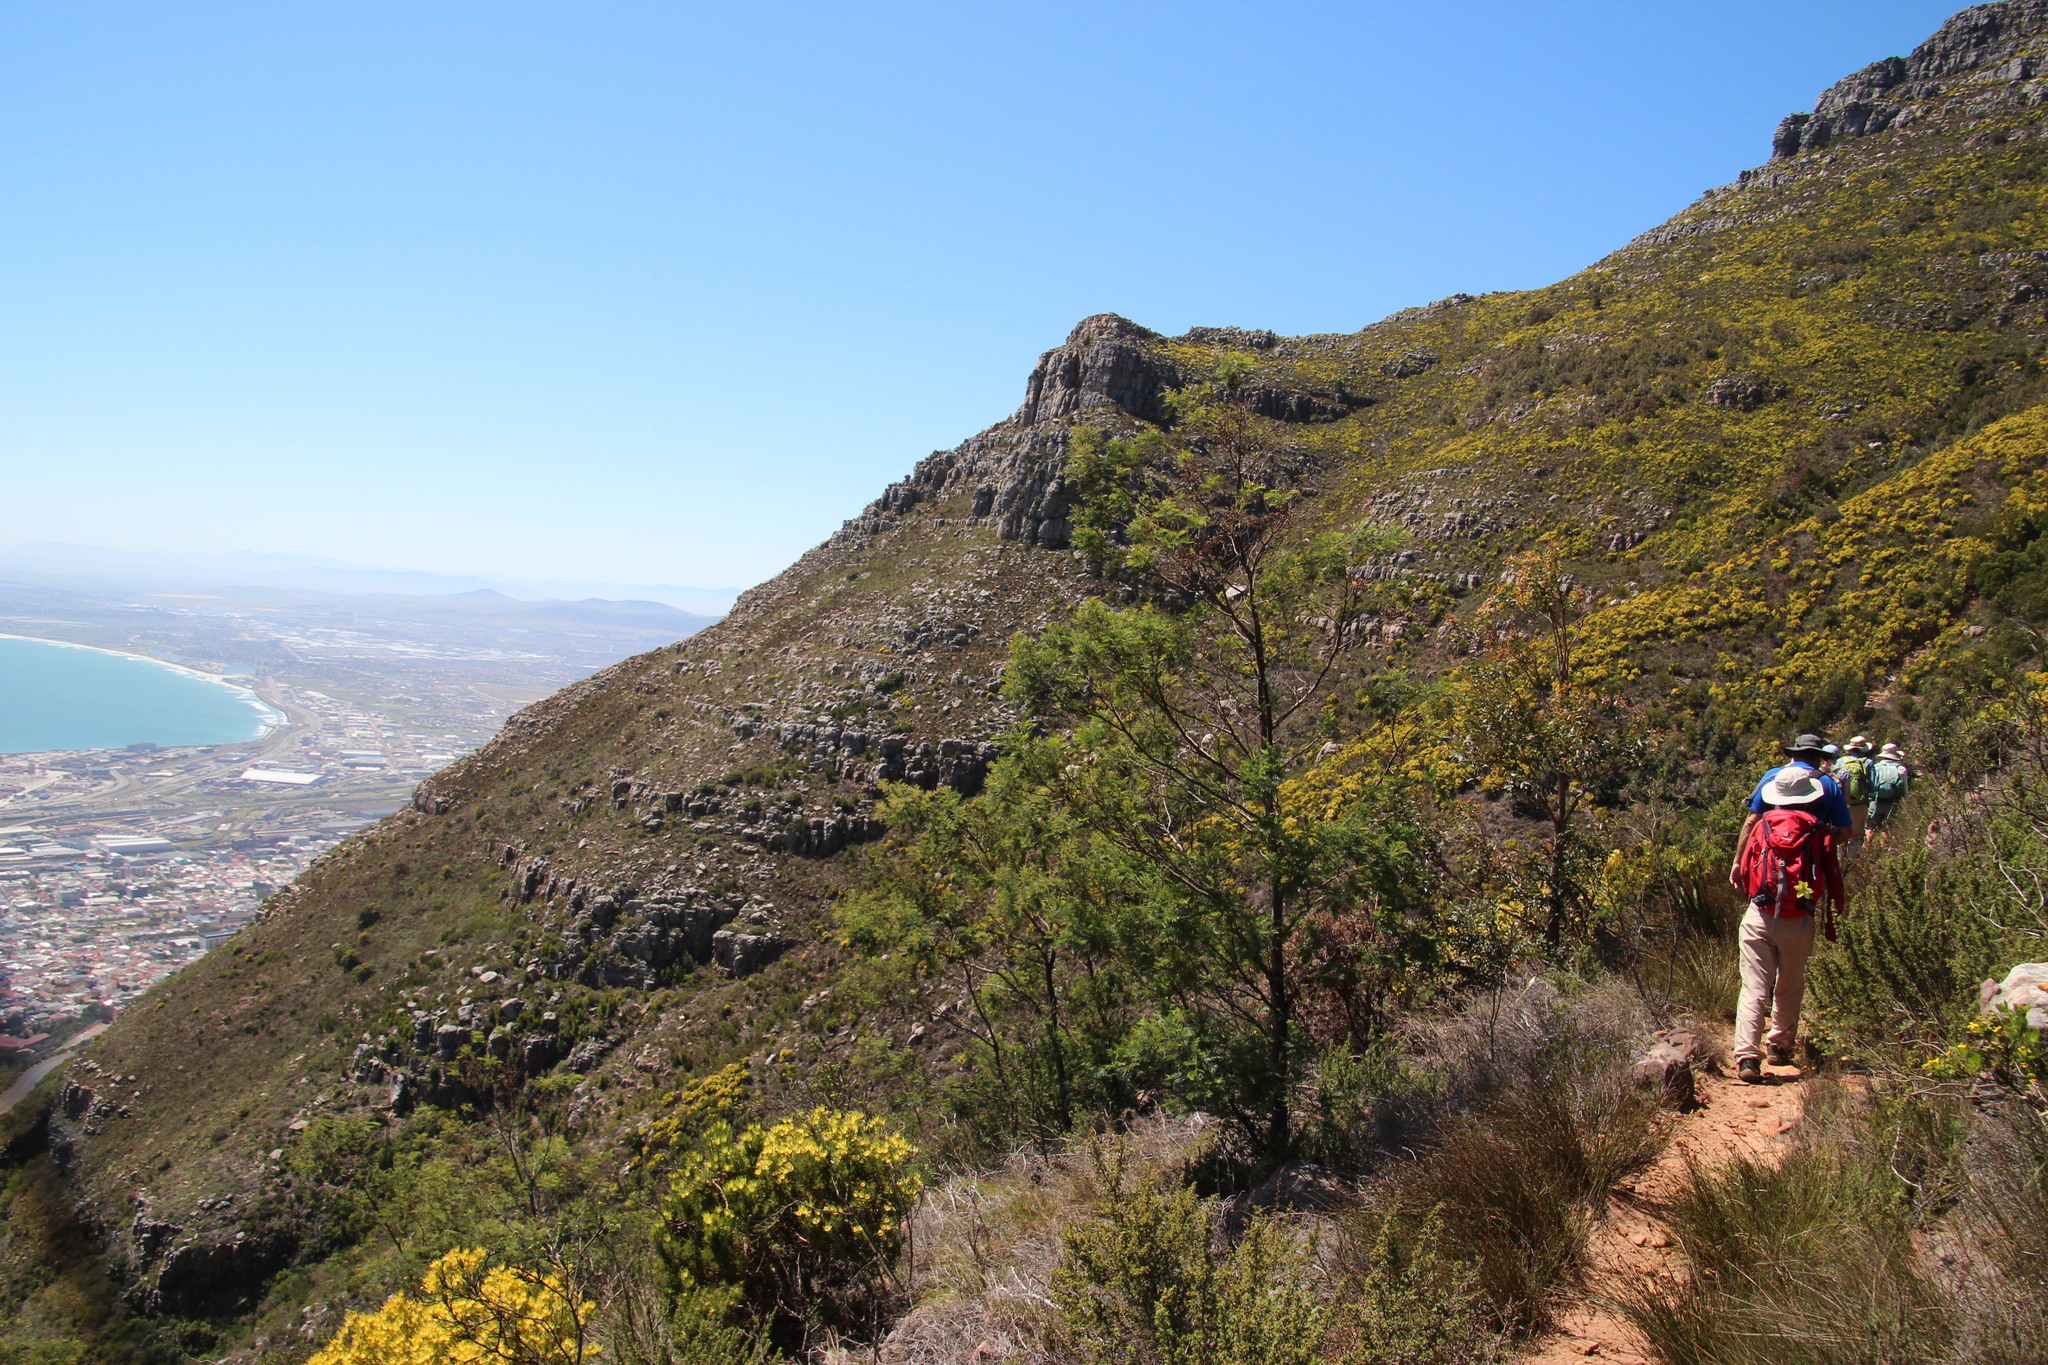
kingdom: Plantae
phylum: Tracheophyta
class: Magnoliopsida
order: Fabales
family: Fabaceae
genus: Acacia
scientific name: Acacia mearnsii
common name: Black wattle
